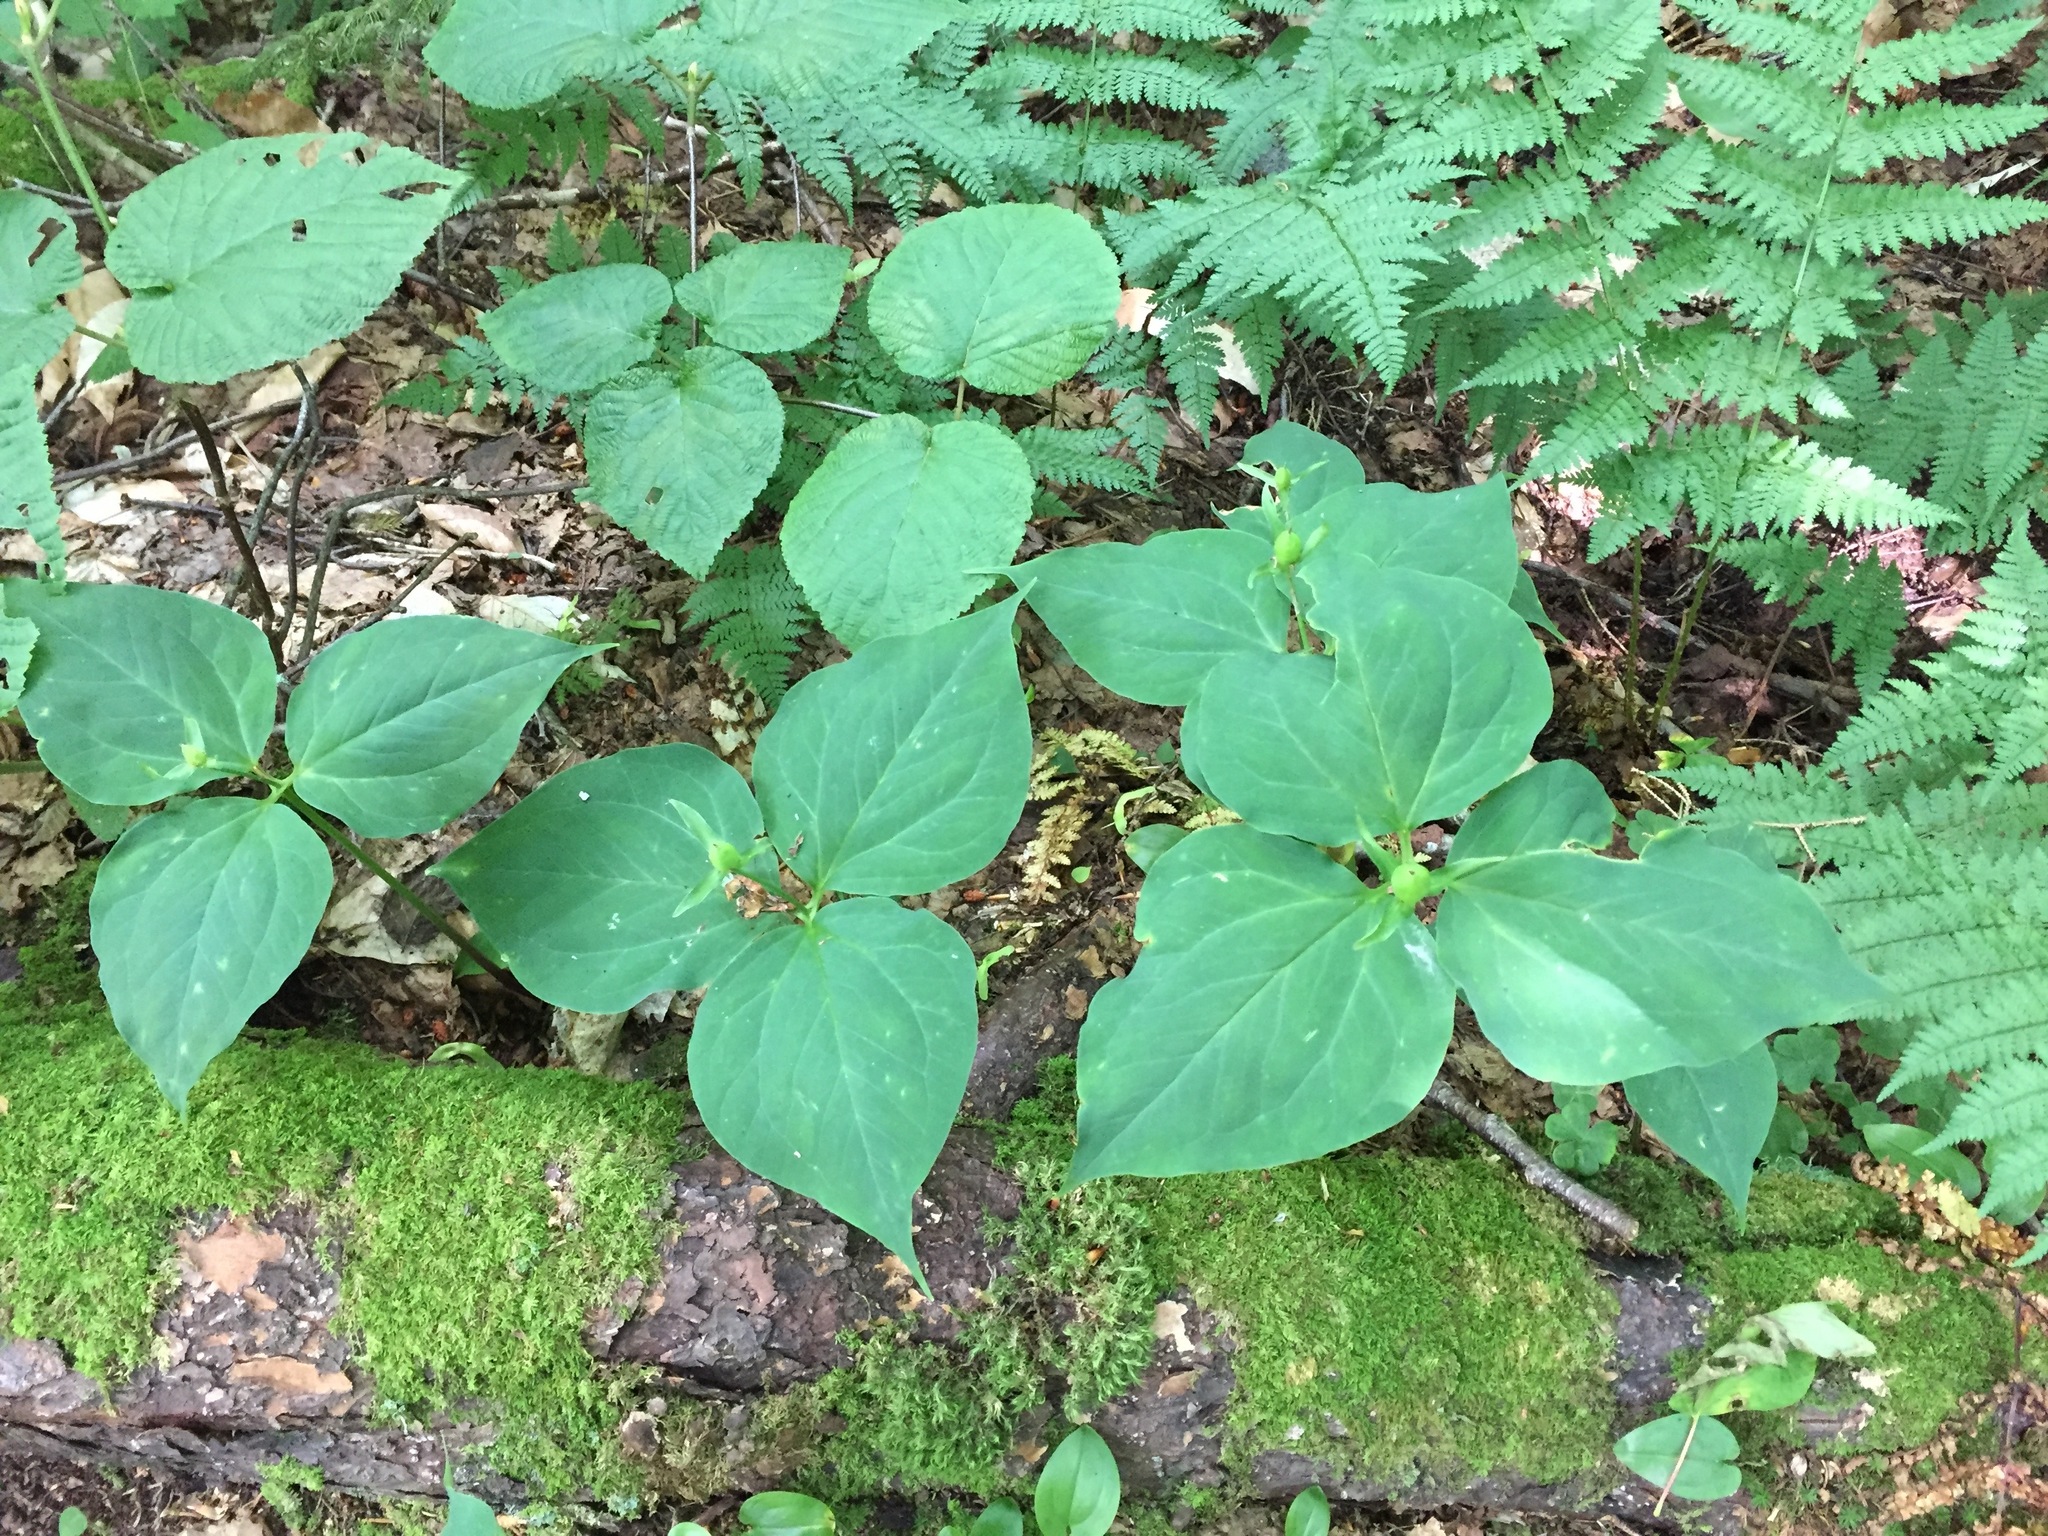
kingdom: Plantae
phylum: Tracheophyta
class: Liliopsida
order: Liliales
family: Melanthiaceae
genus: Trillium
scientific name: Trillium undulatum
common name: Paint trillium
